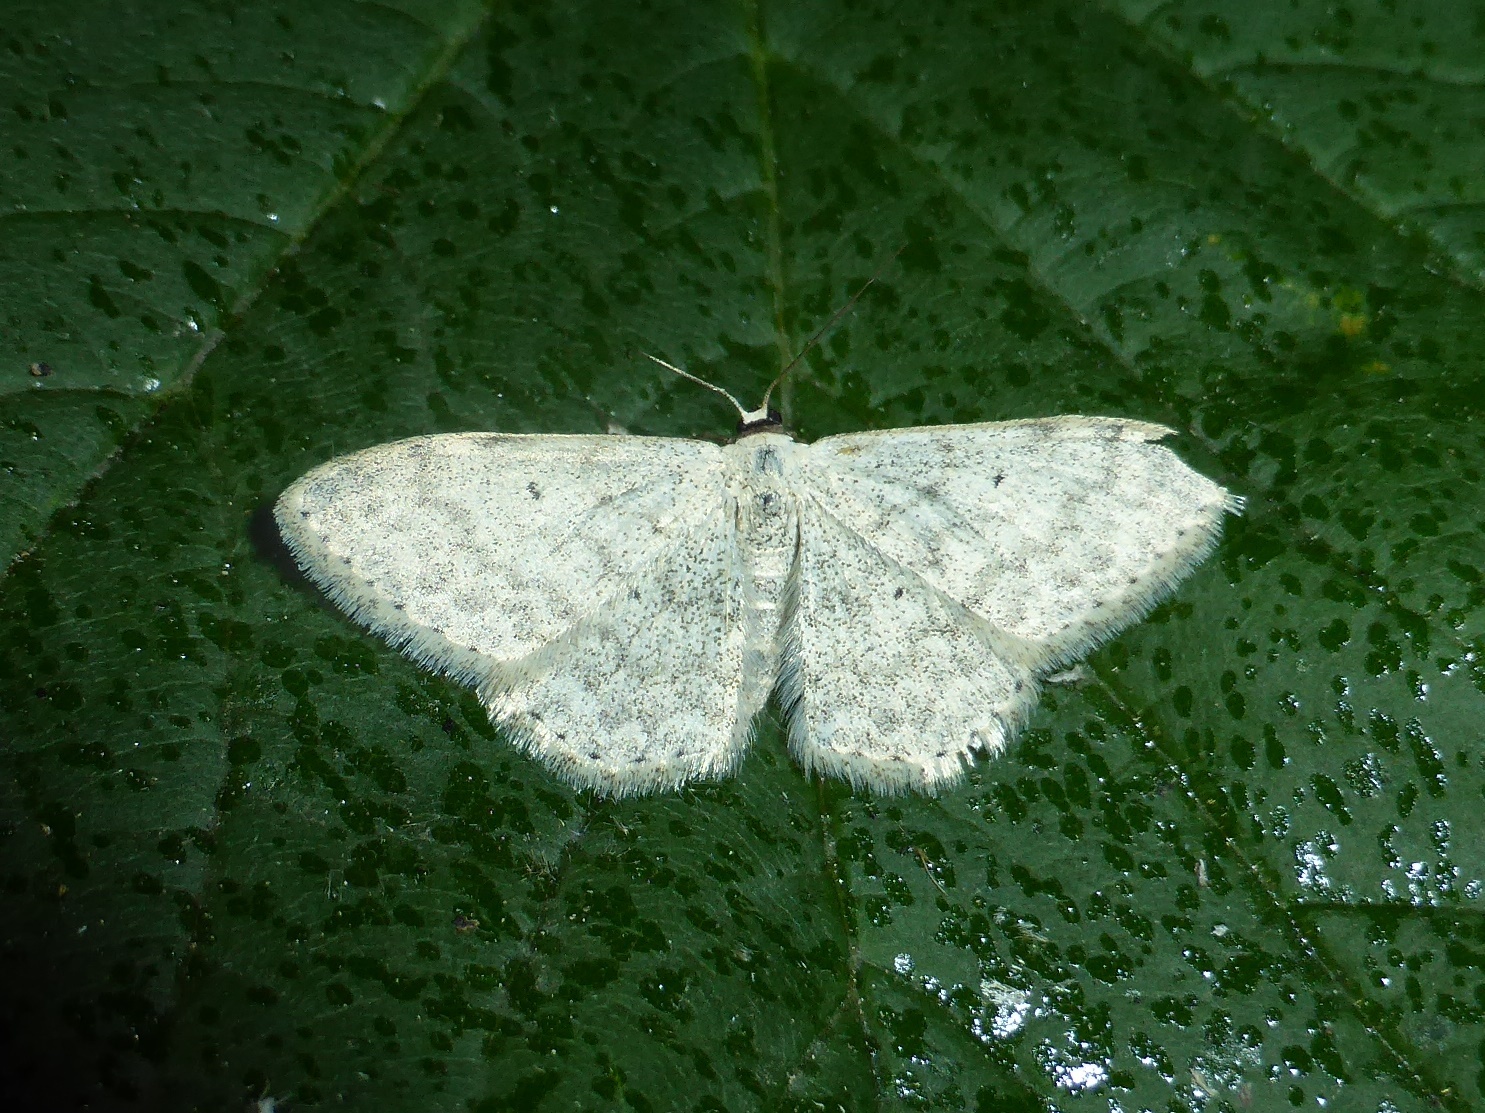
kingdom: Animalia
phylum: Arthropoda
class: Insecta
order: Lepidoptera
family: Geometridae
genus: Scopula
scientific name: Scopula incanata
